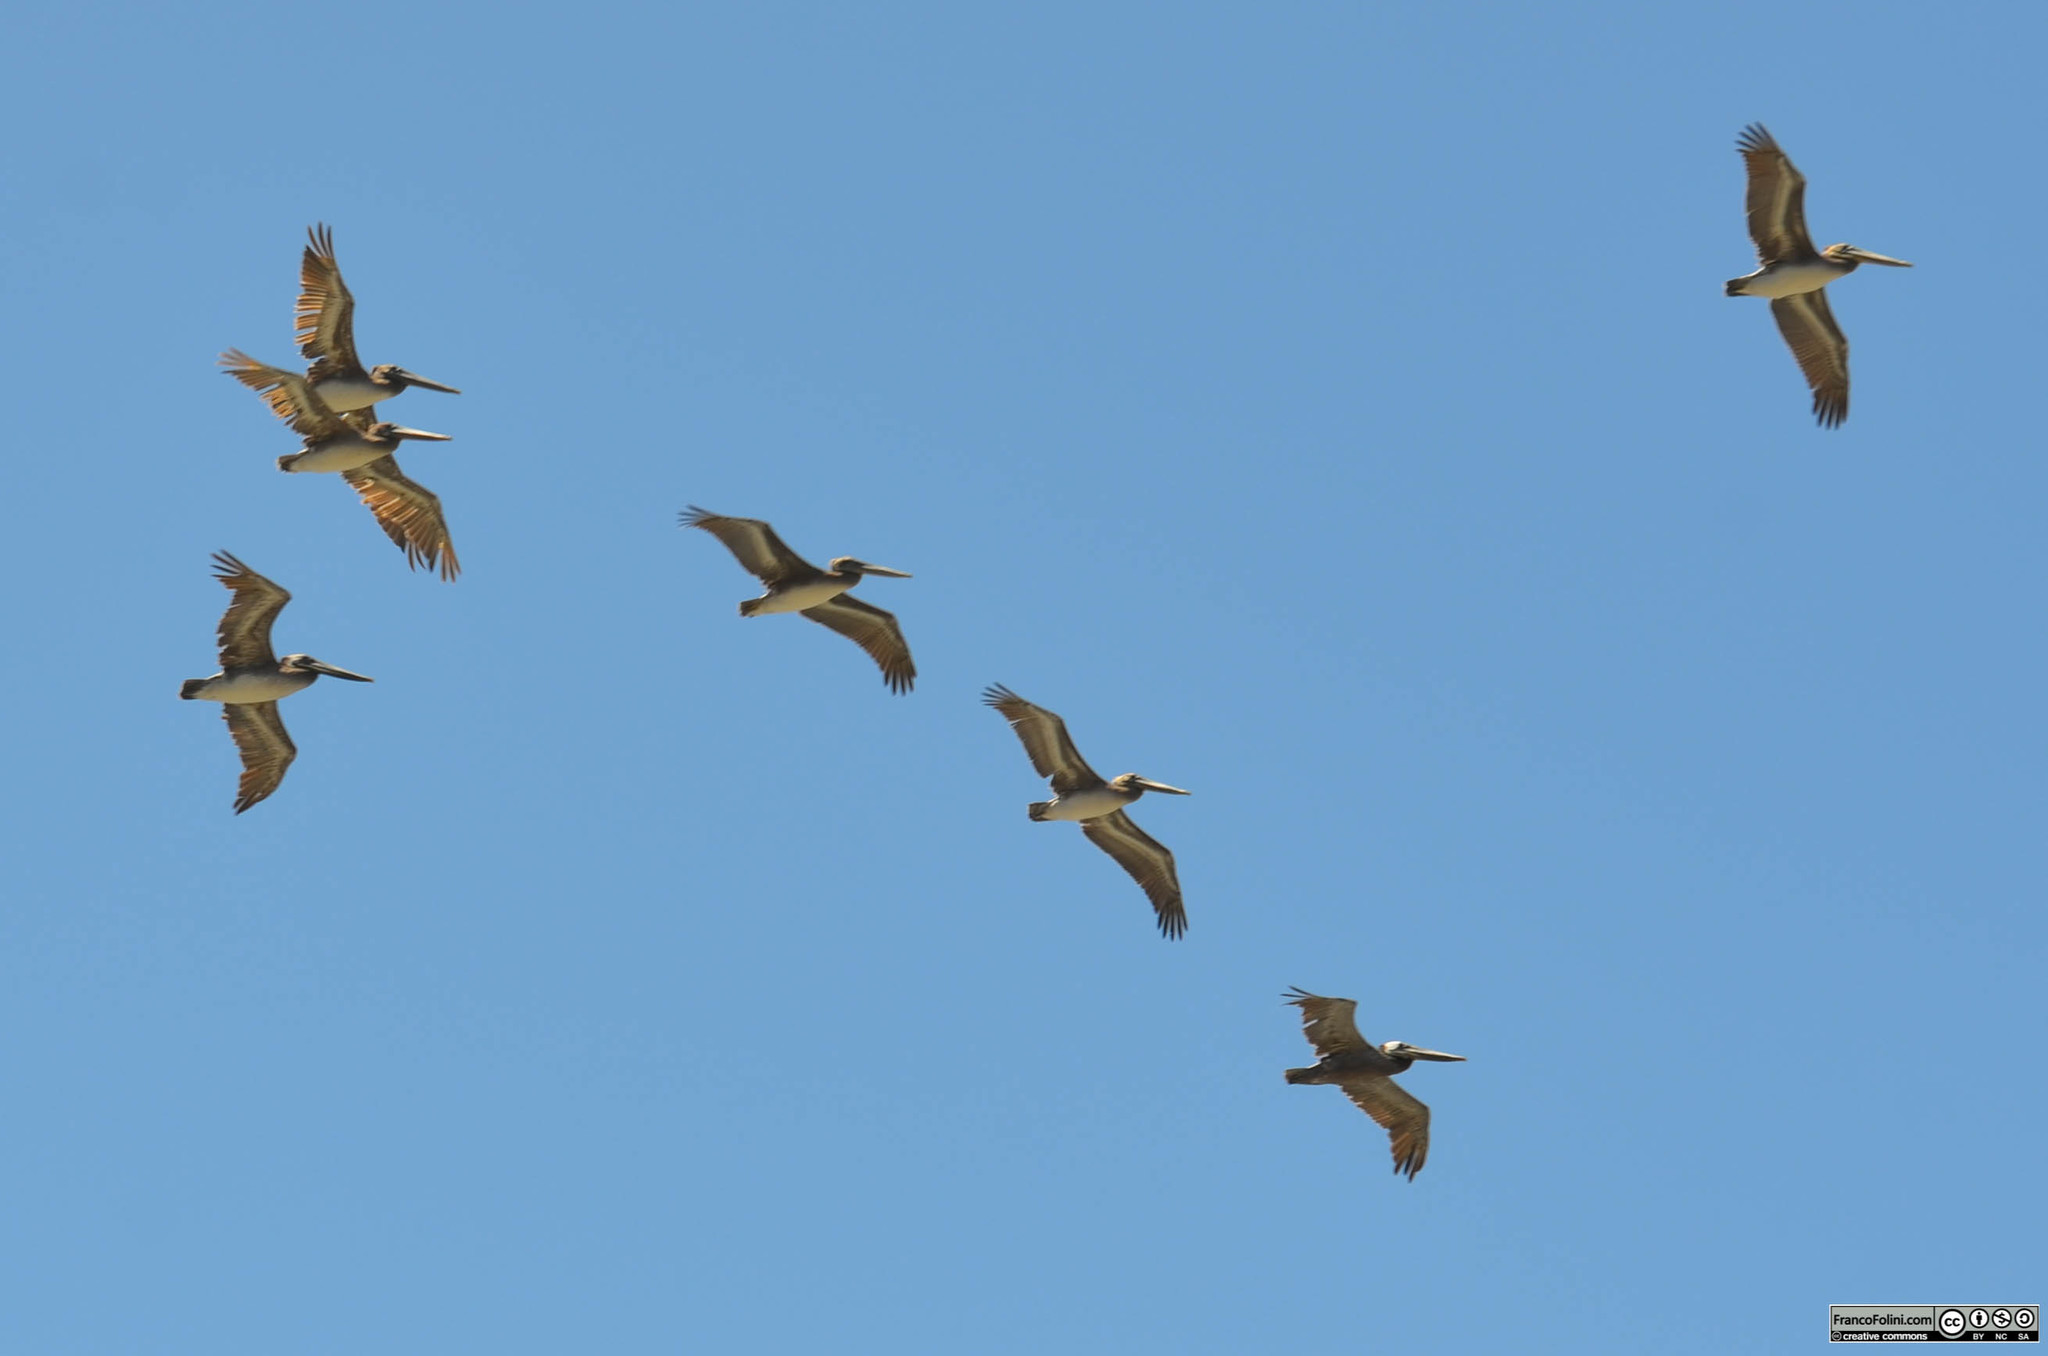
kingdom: Animalia
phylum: Chordata
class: Aves
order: Pelecaniformes
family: Pelecanidae
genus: Pelecanus
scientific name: Pelecanus occidentalis
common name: Brown pelican
